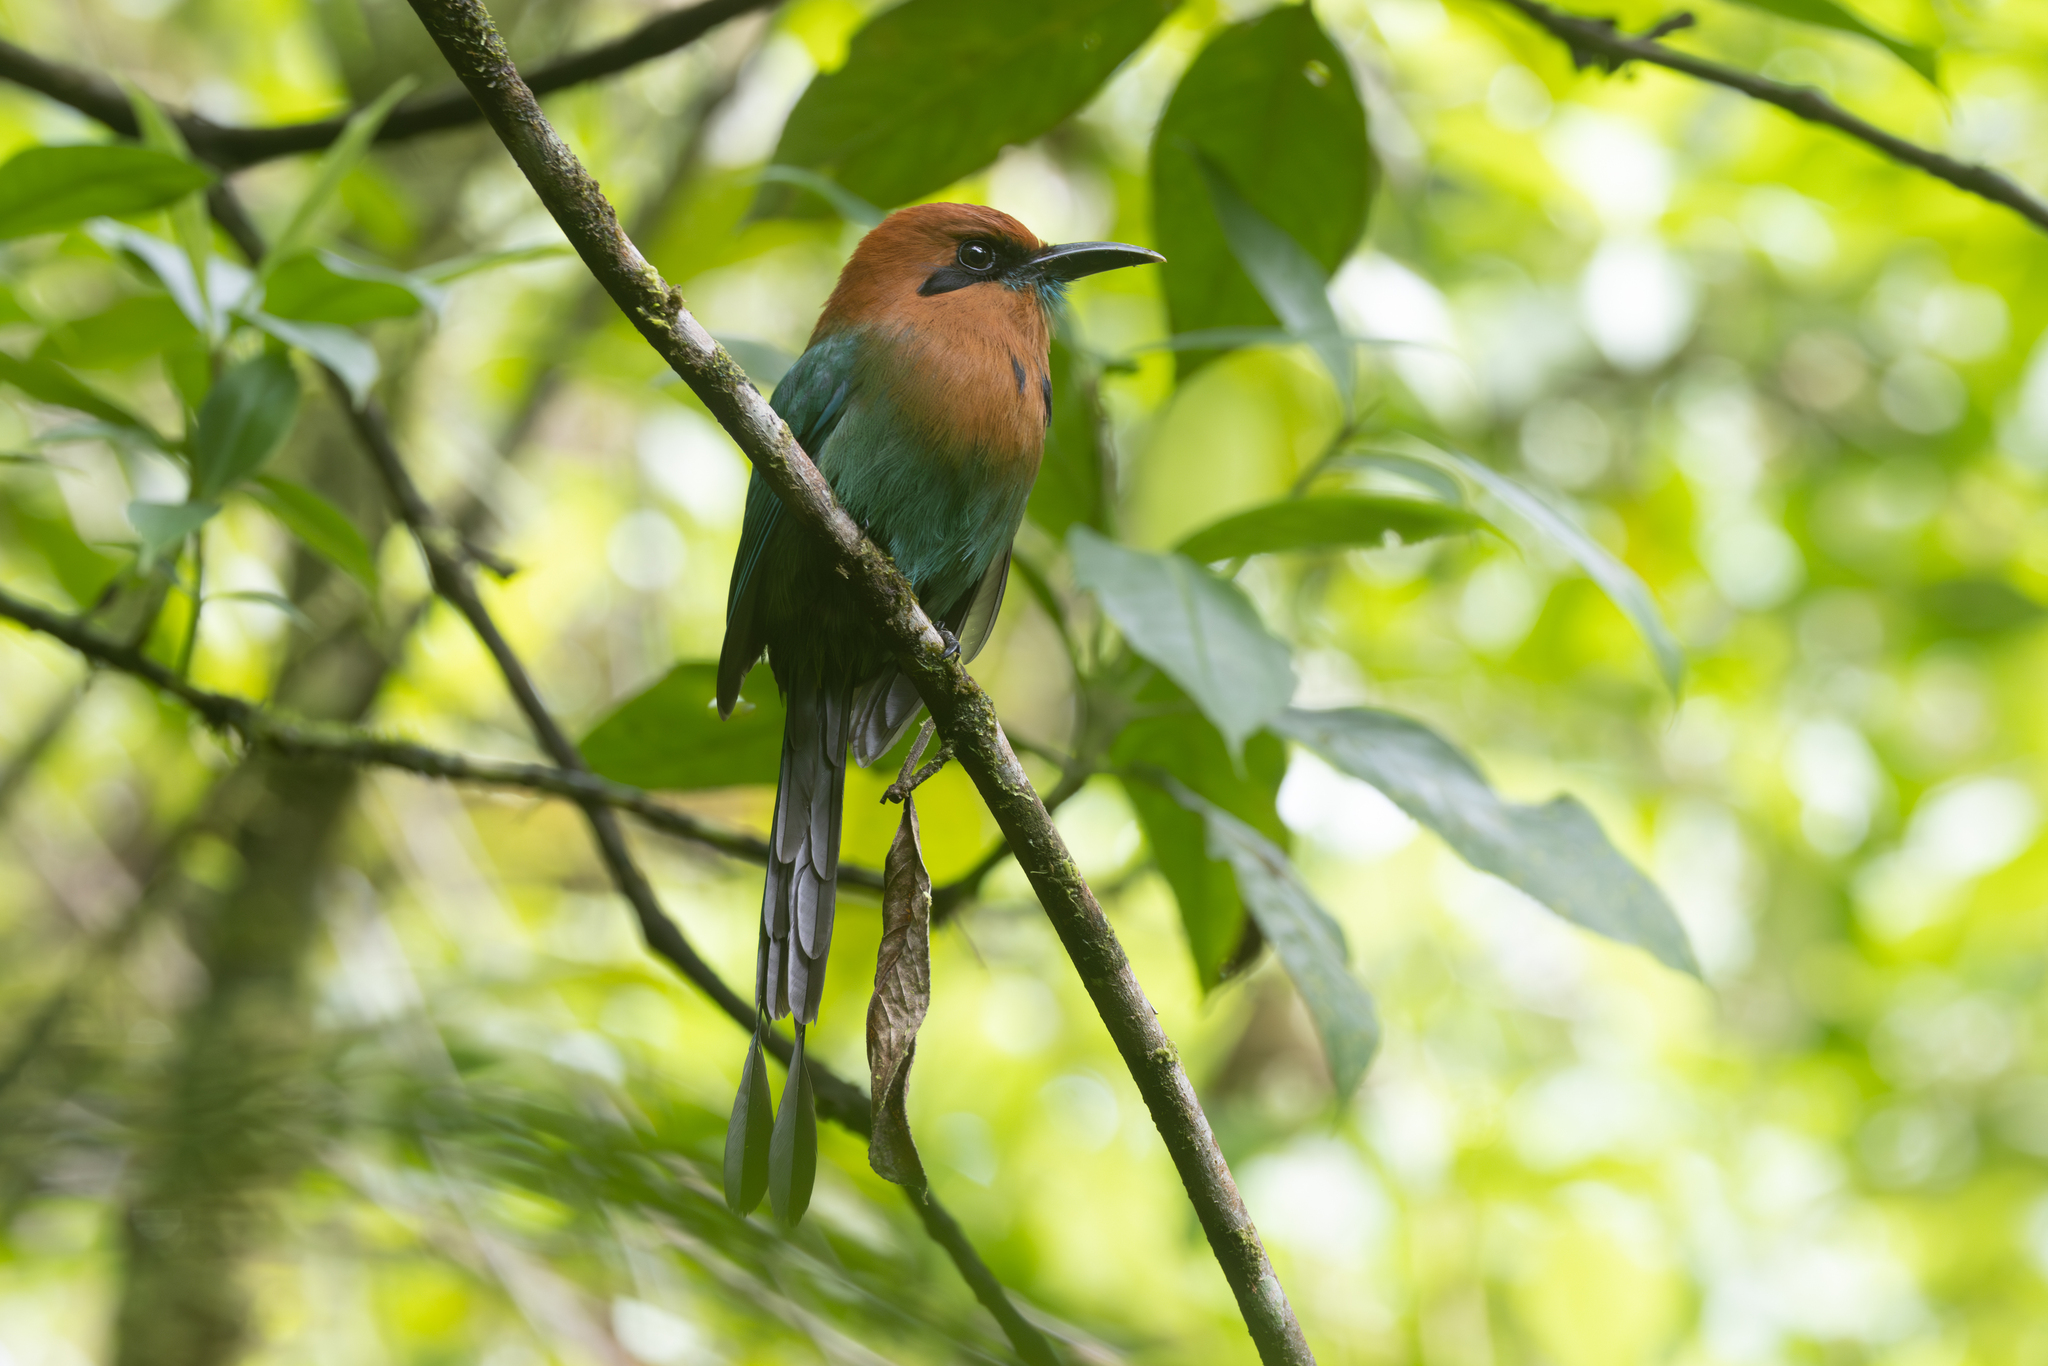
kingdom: Animalia
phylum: Chordata
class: Aves
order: Coraciiformes
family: Momotidae
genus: Electron
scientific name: Electron platyrhynchum
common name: Broad-billed motmot
